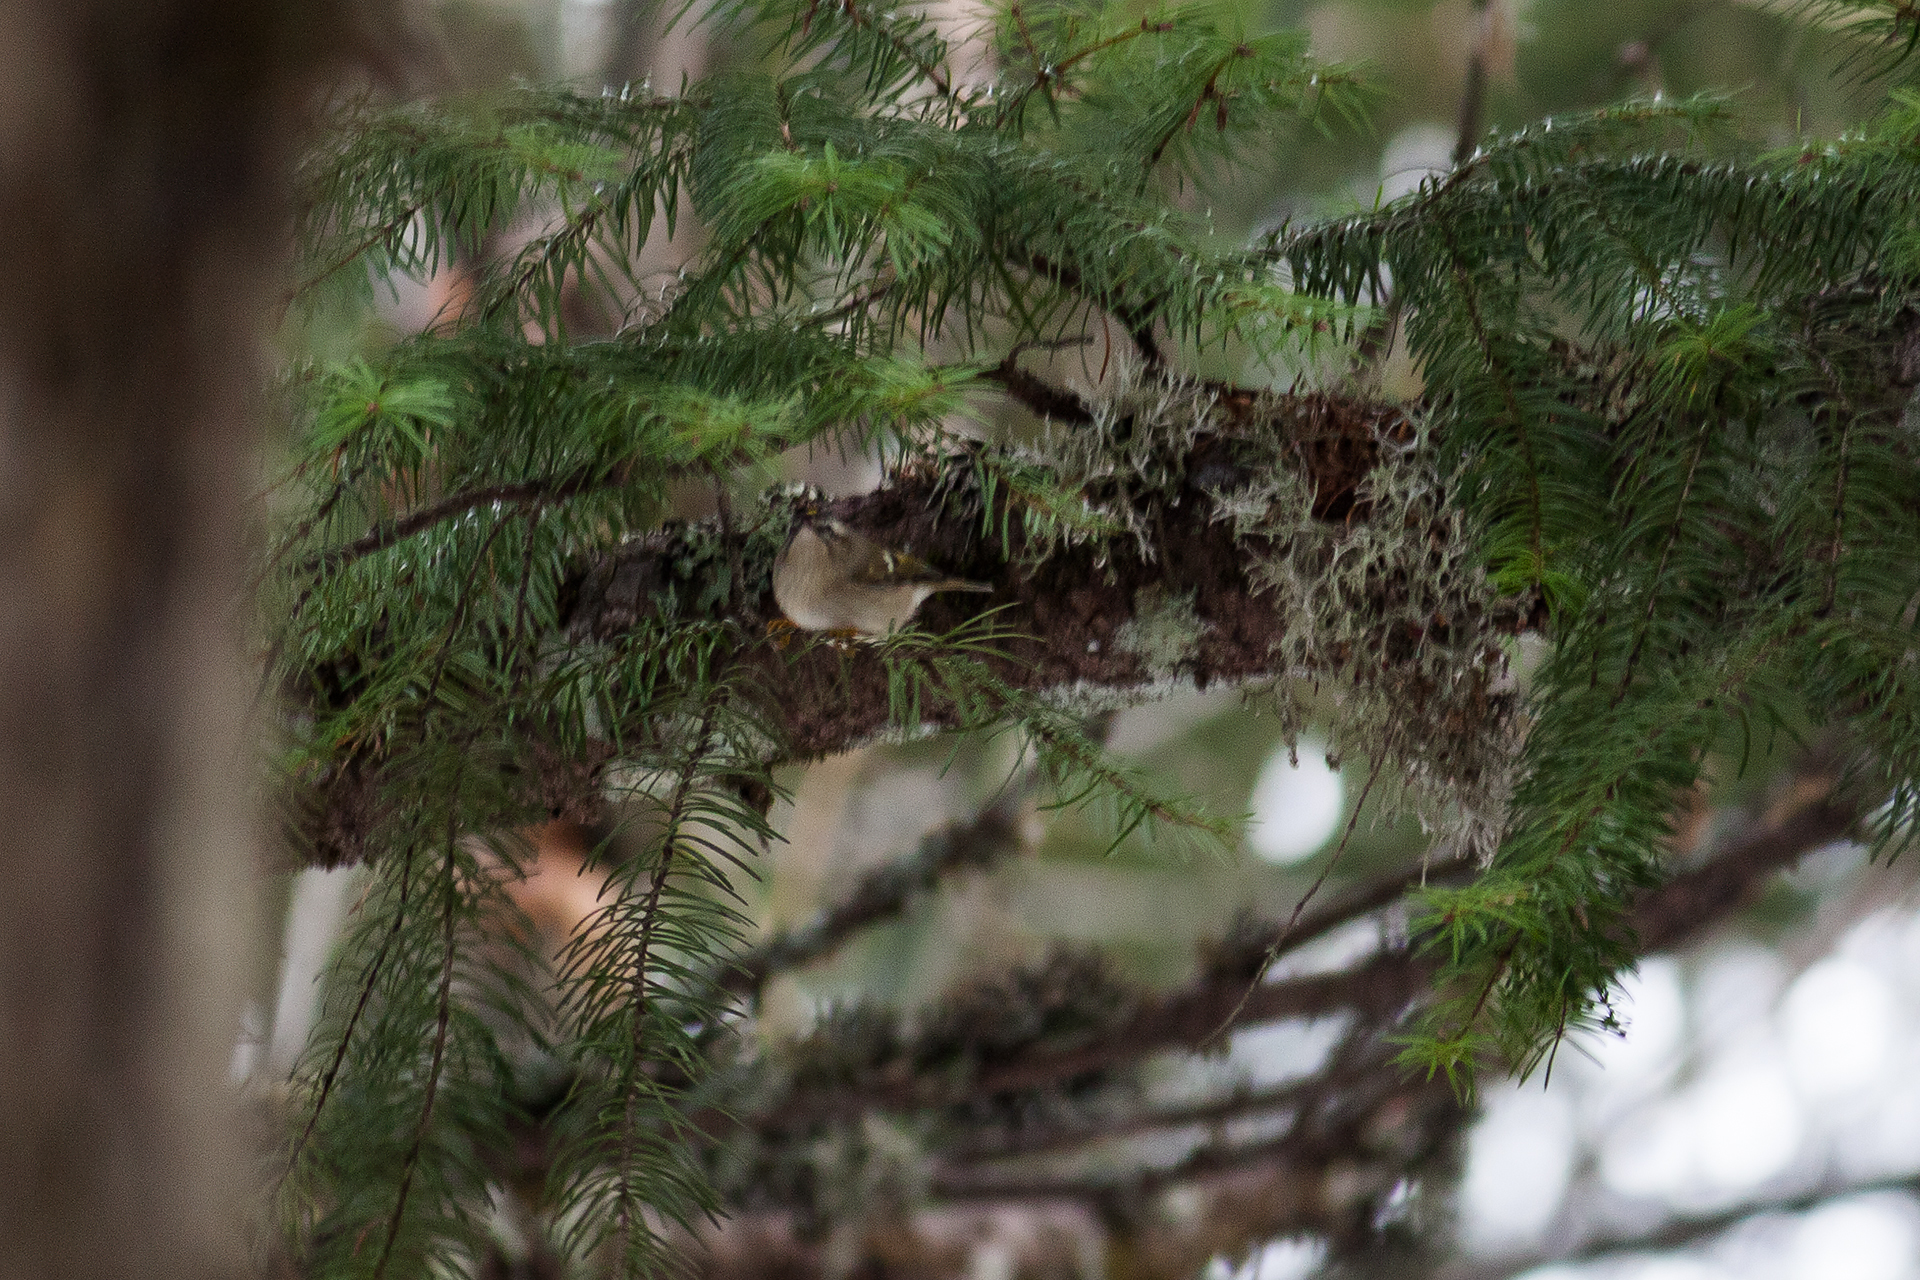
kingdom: Animalia
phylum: Chordata
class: Aves
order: Passeriformes
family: Regulidae
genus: Regulus
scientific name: Regulus satrapa
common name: Golden-crowned kinglet
